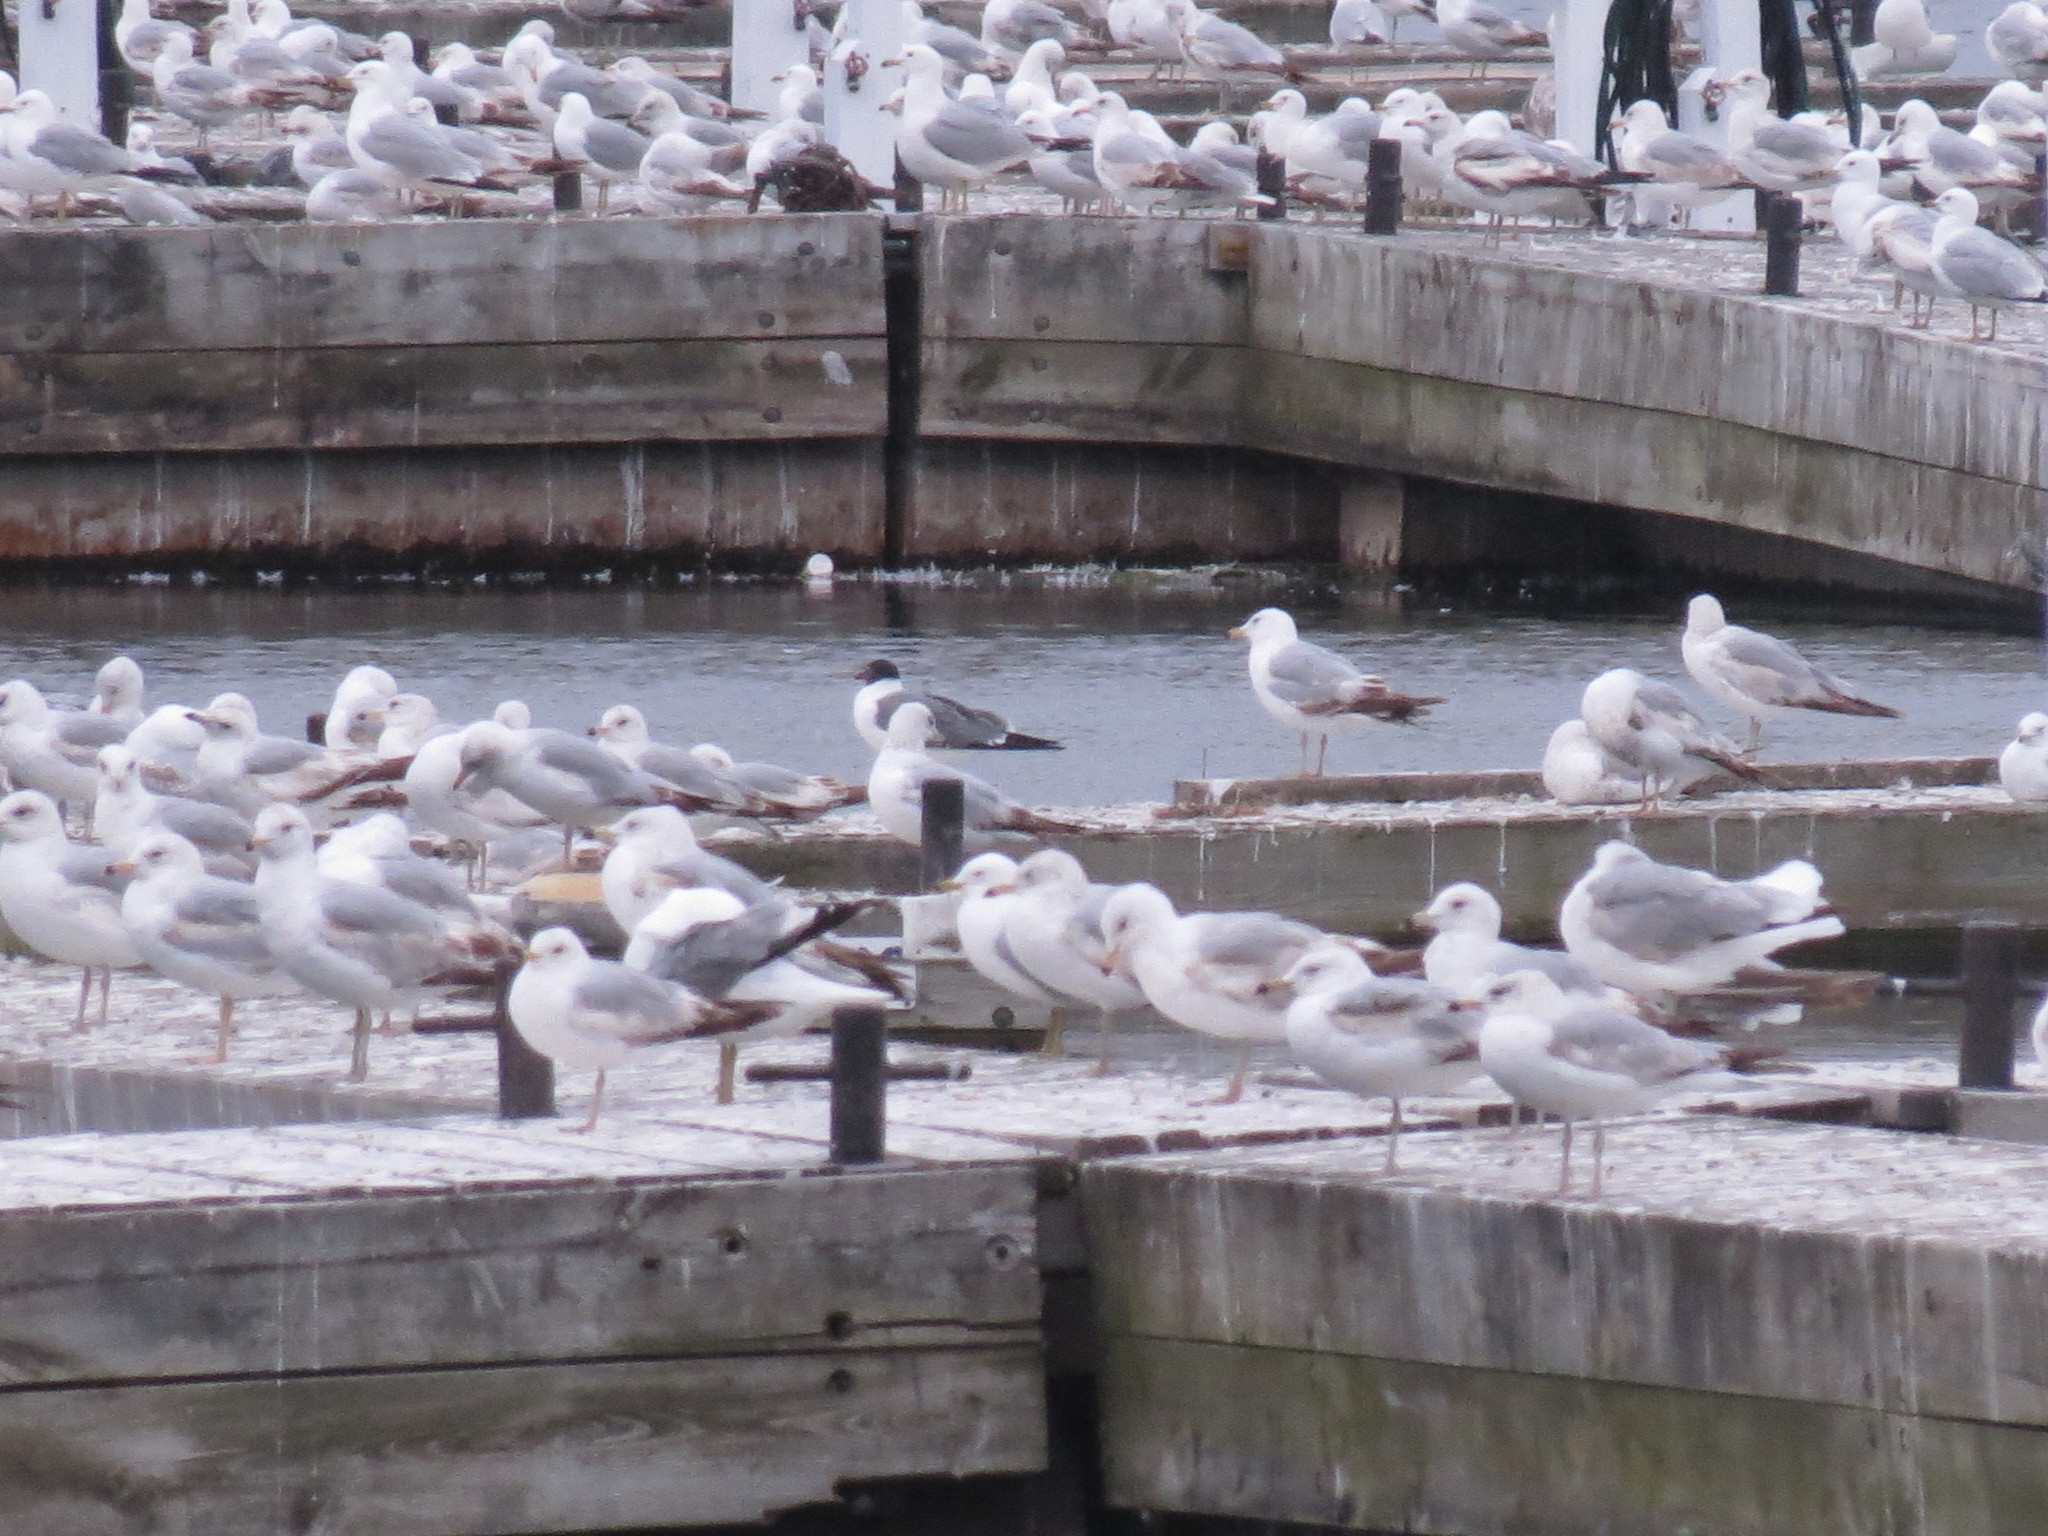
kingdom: Animalia
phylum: Chordata
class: Aves
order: Charadriiformes
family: Laridae
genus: Leucophaeus
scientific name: Leucophaeus atricilla
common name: Laughing gull
